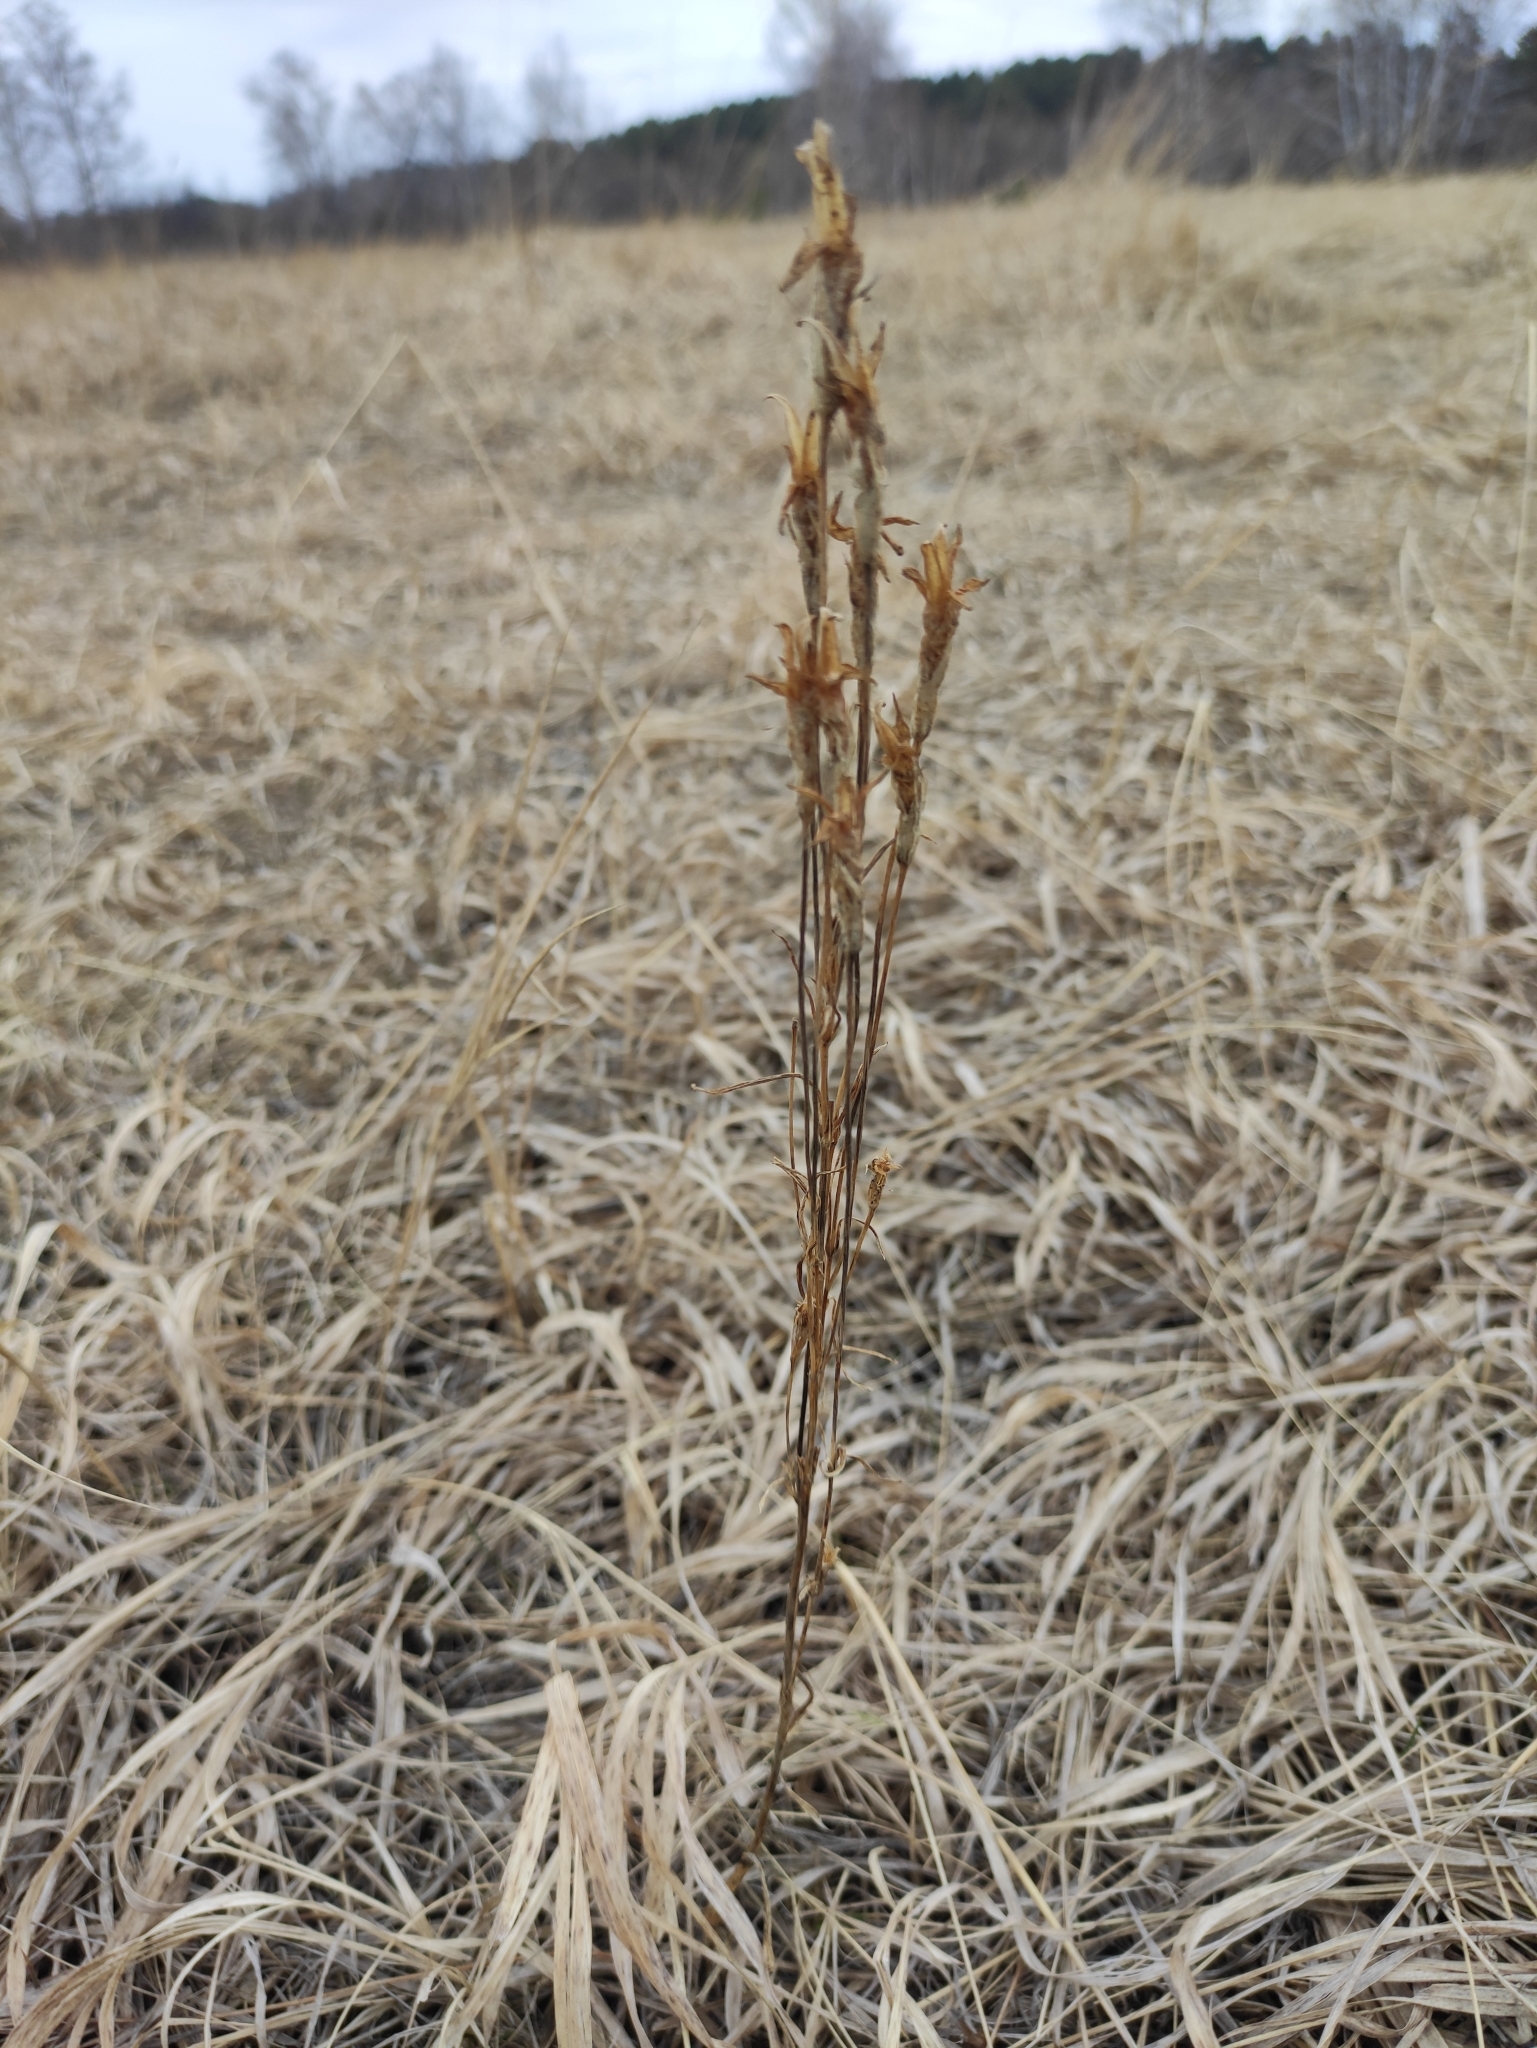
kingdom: Plantae
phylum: Tracheophyta
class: Magnoliopsida
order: Gentianales
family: Gentianaceae
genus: Gentianopsis
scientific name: Gentianopsis barbata
